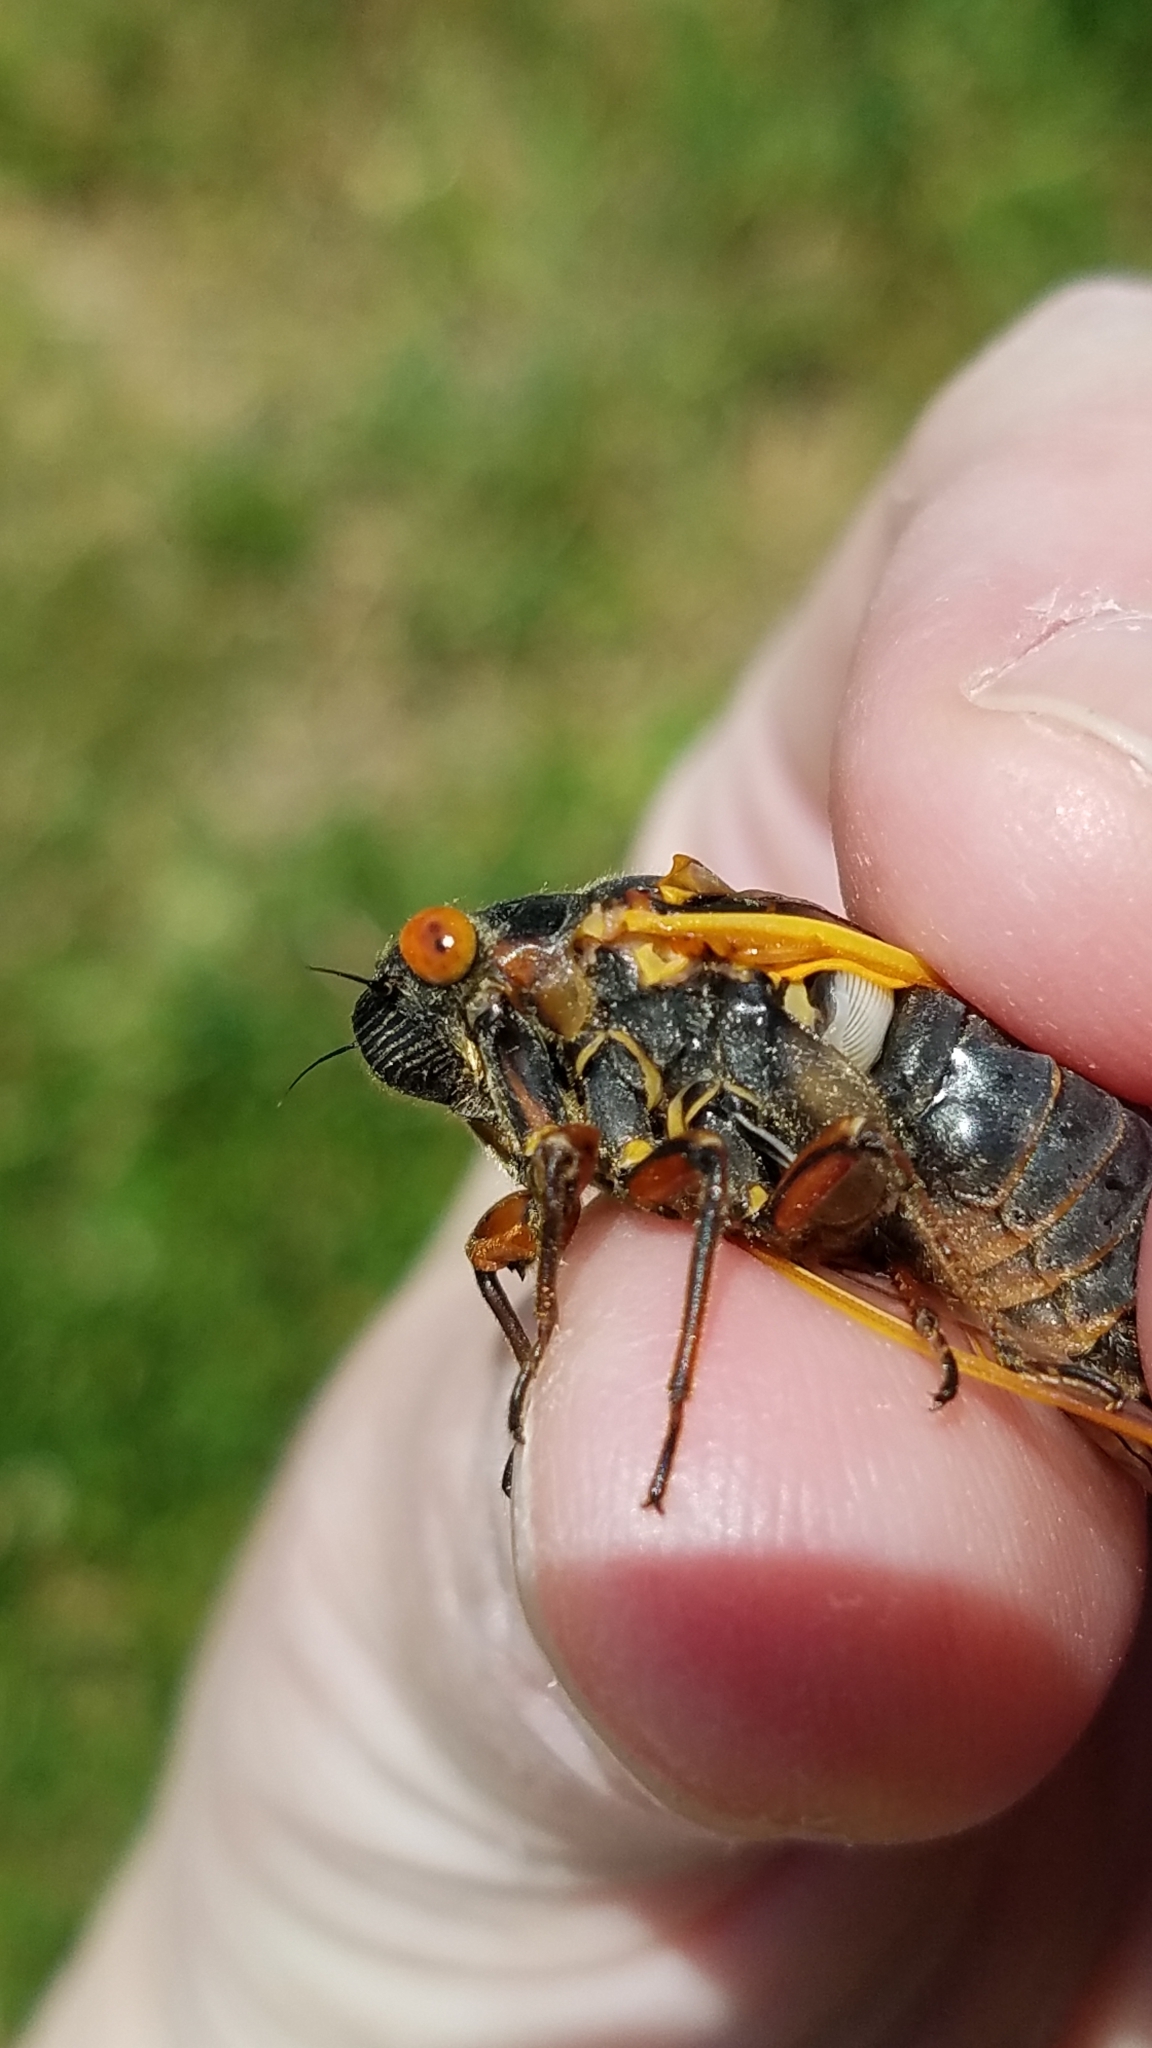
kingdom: Animalia
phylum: Arthropoda
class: Insecta
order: Hemiptera
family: Cicadidae
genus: Magicicada
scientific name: Magicicada septendecim
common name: Periodical cicada
